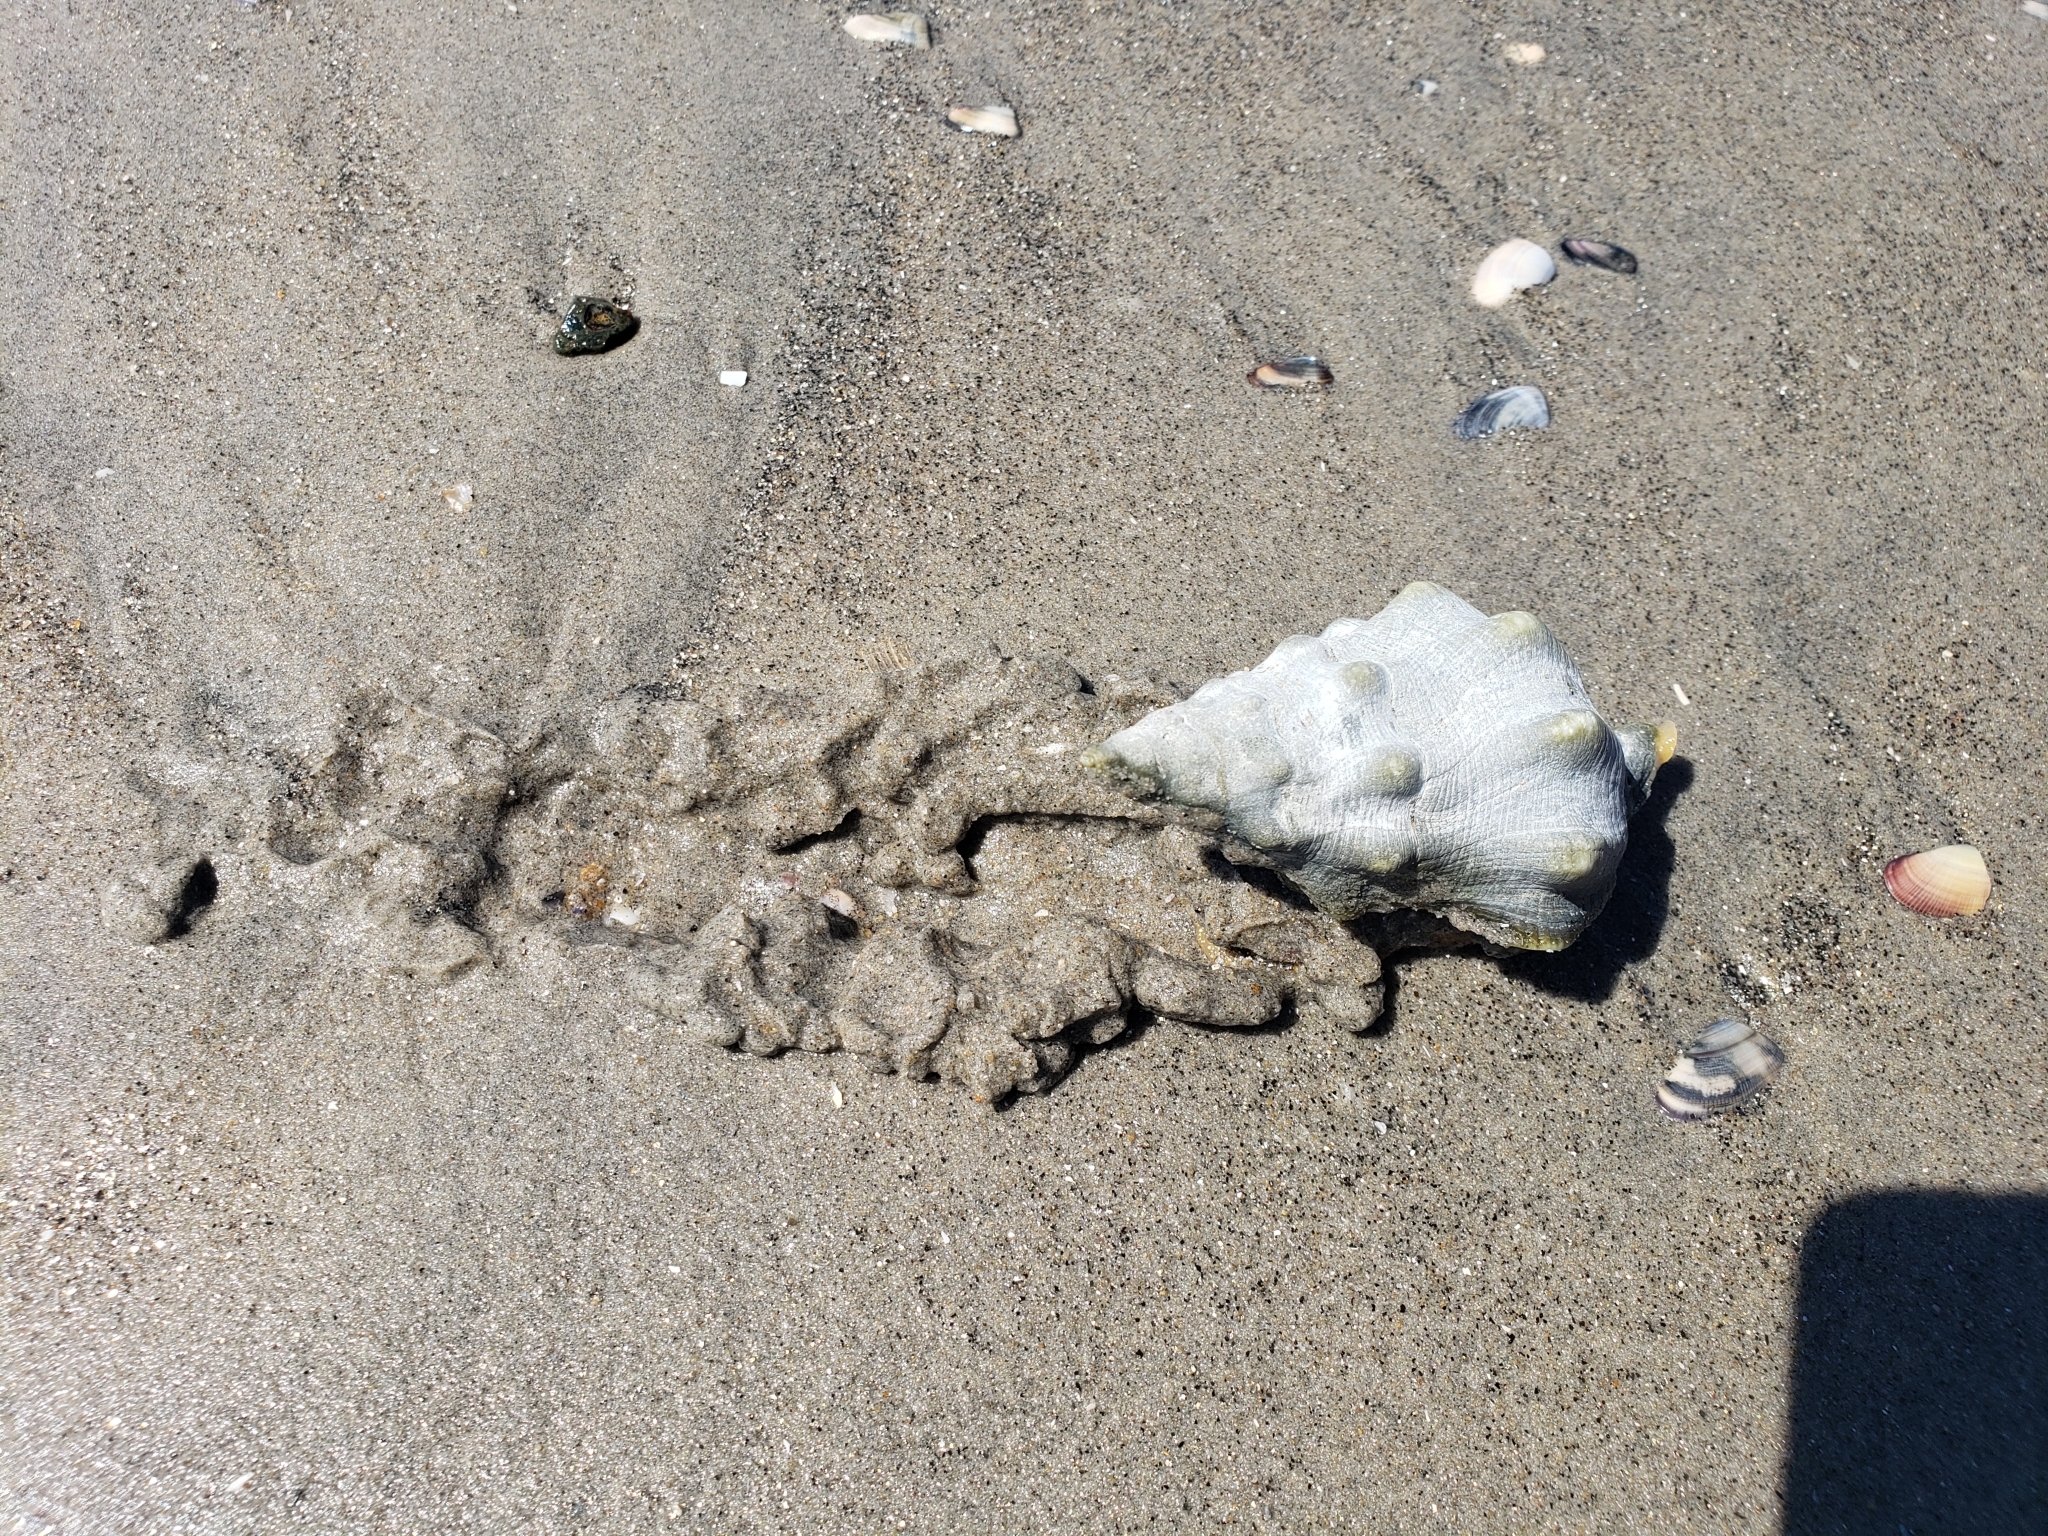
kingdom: Animalia
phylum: Mollusca
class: Gastropoda
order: Neogastropoda
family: Austrosiphonidae
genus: Kelletia
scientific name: Kelletia kelletii
